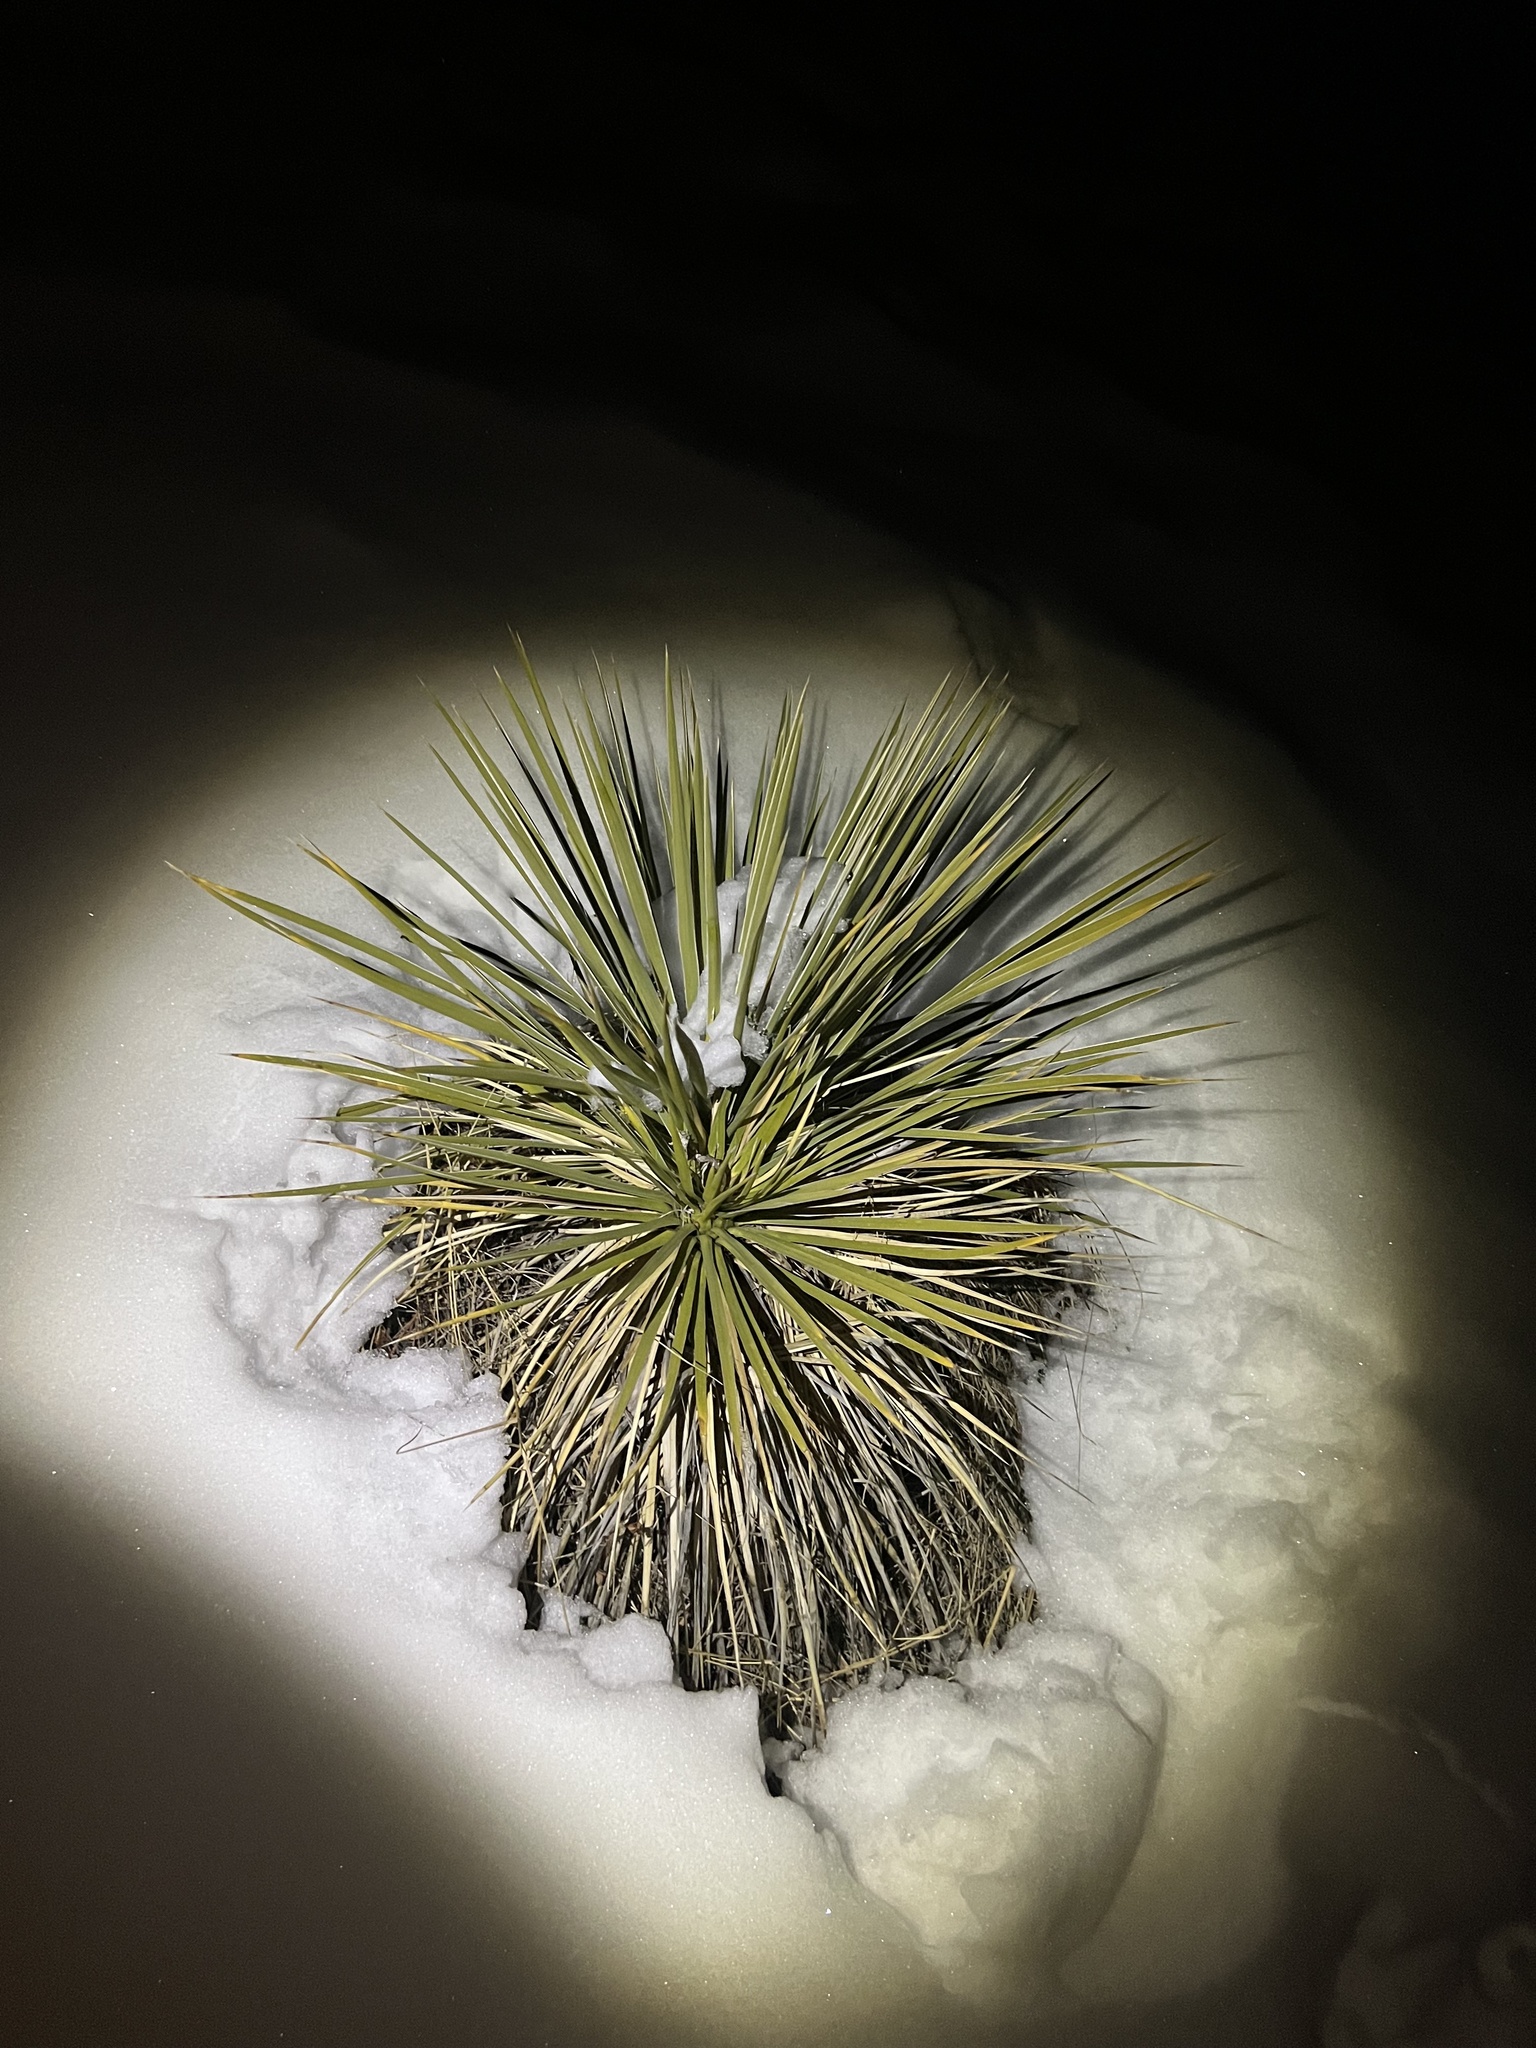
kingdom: Plantae
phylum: Tracheophyta
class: Liliopsida
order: Asparagales
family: Asparagaceae
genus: Yucca
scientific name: Yucca glauca
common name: Great plains yucca
